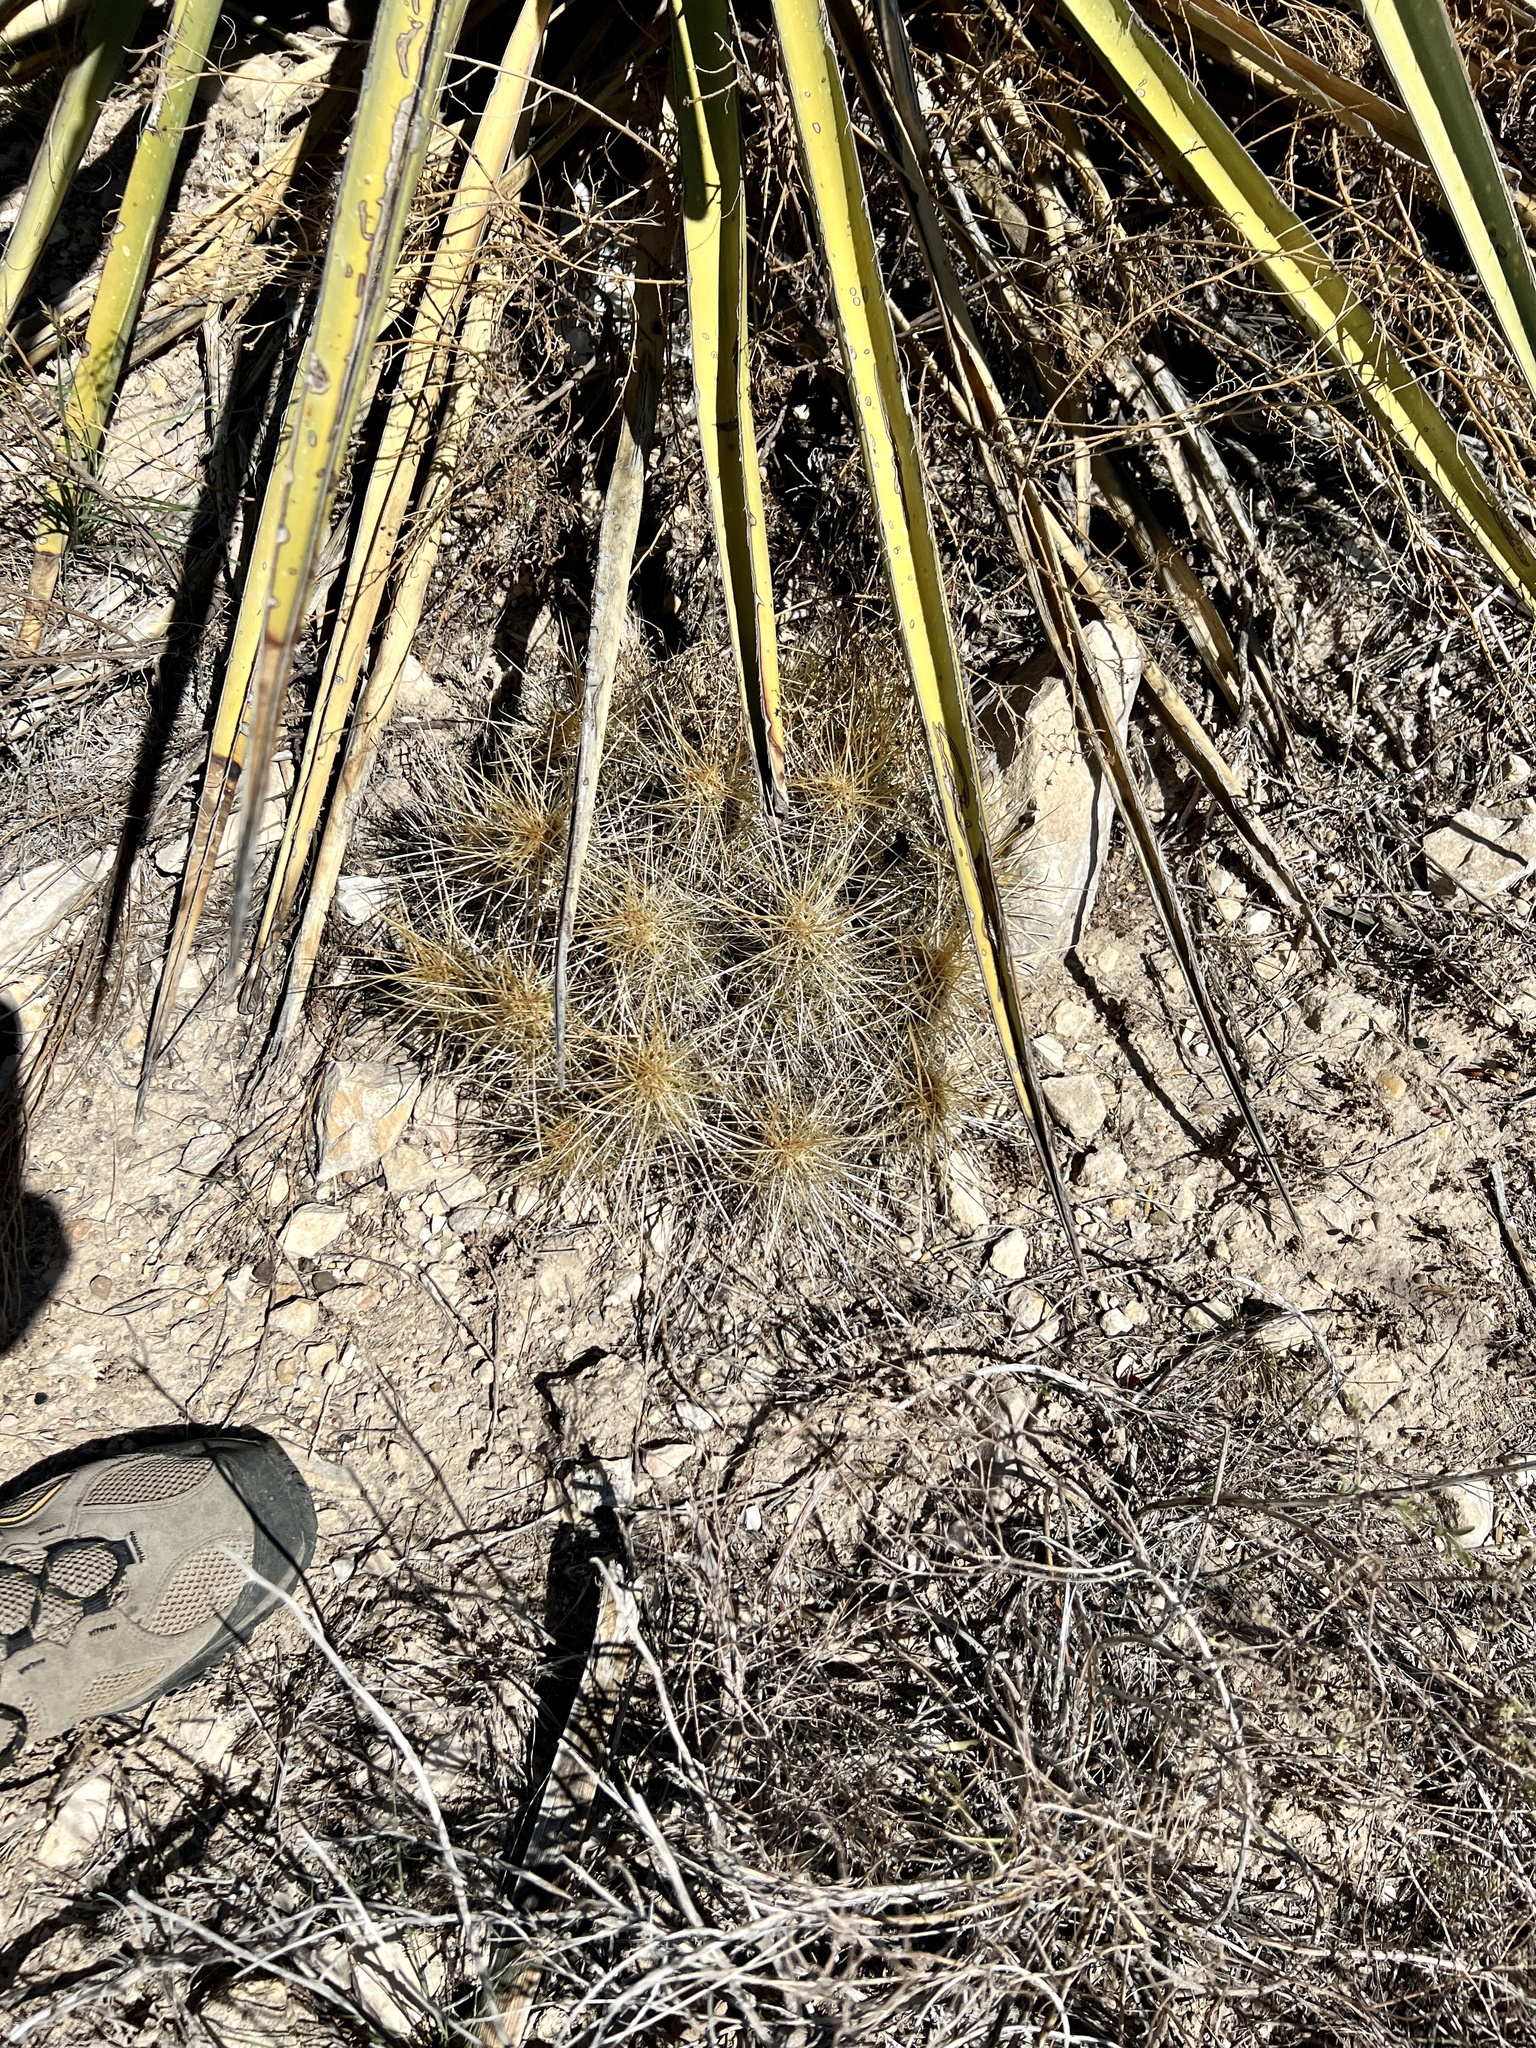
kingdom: Plantae
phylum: Tracheophyta
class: Magnoliopsida
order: Caryophyllales
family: Cactaceae
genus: Echinocereus
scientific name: Echinocereus stramineus
